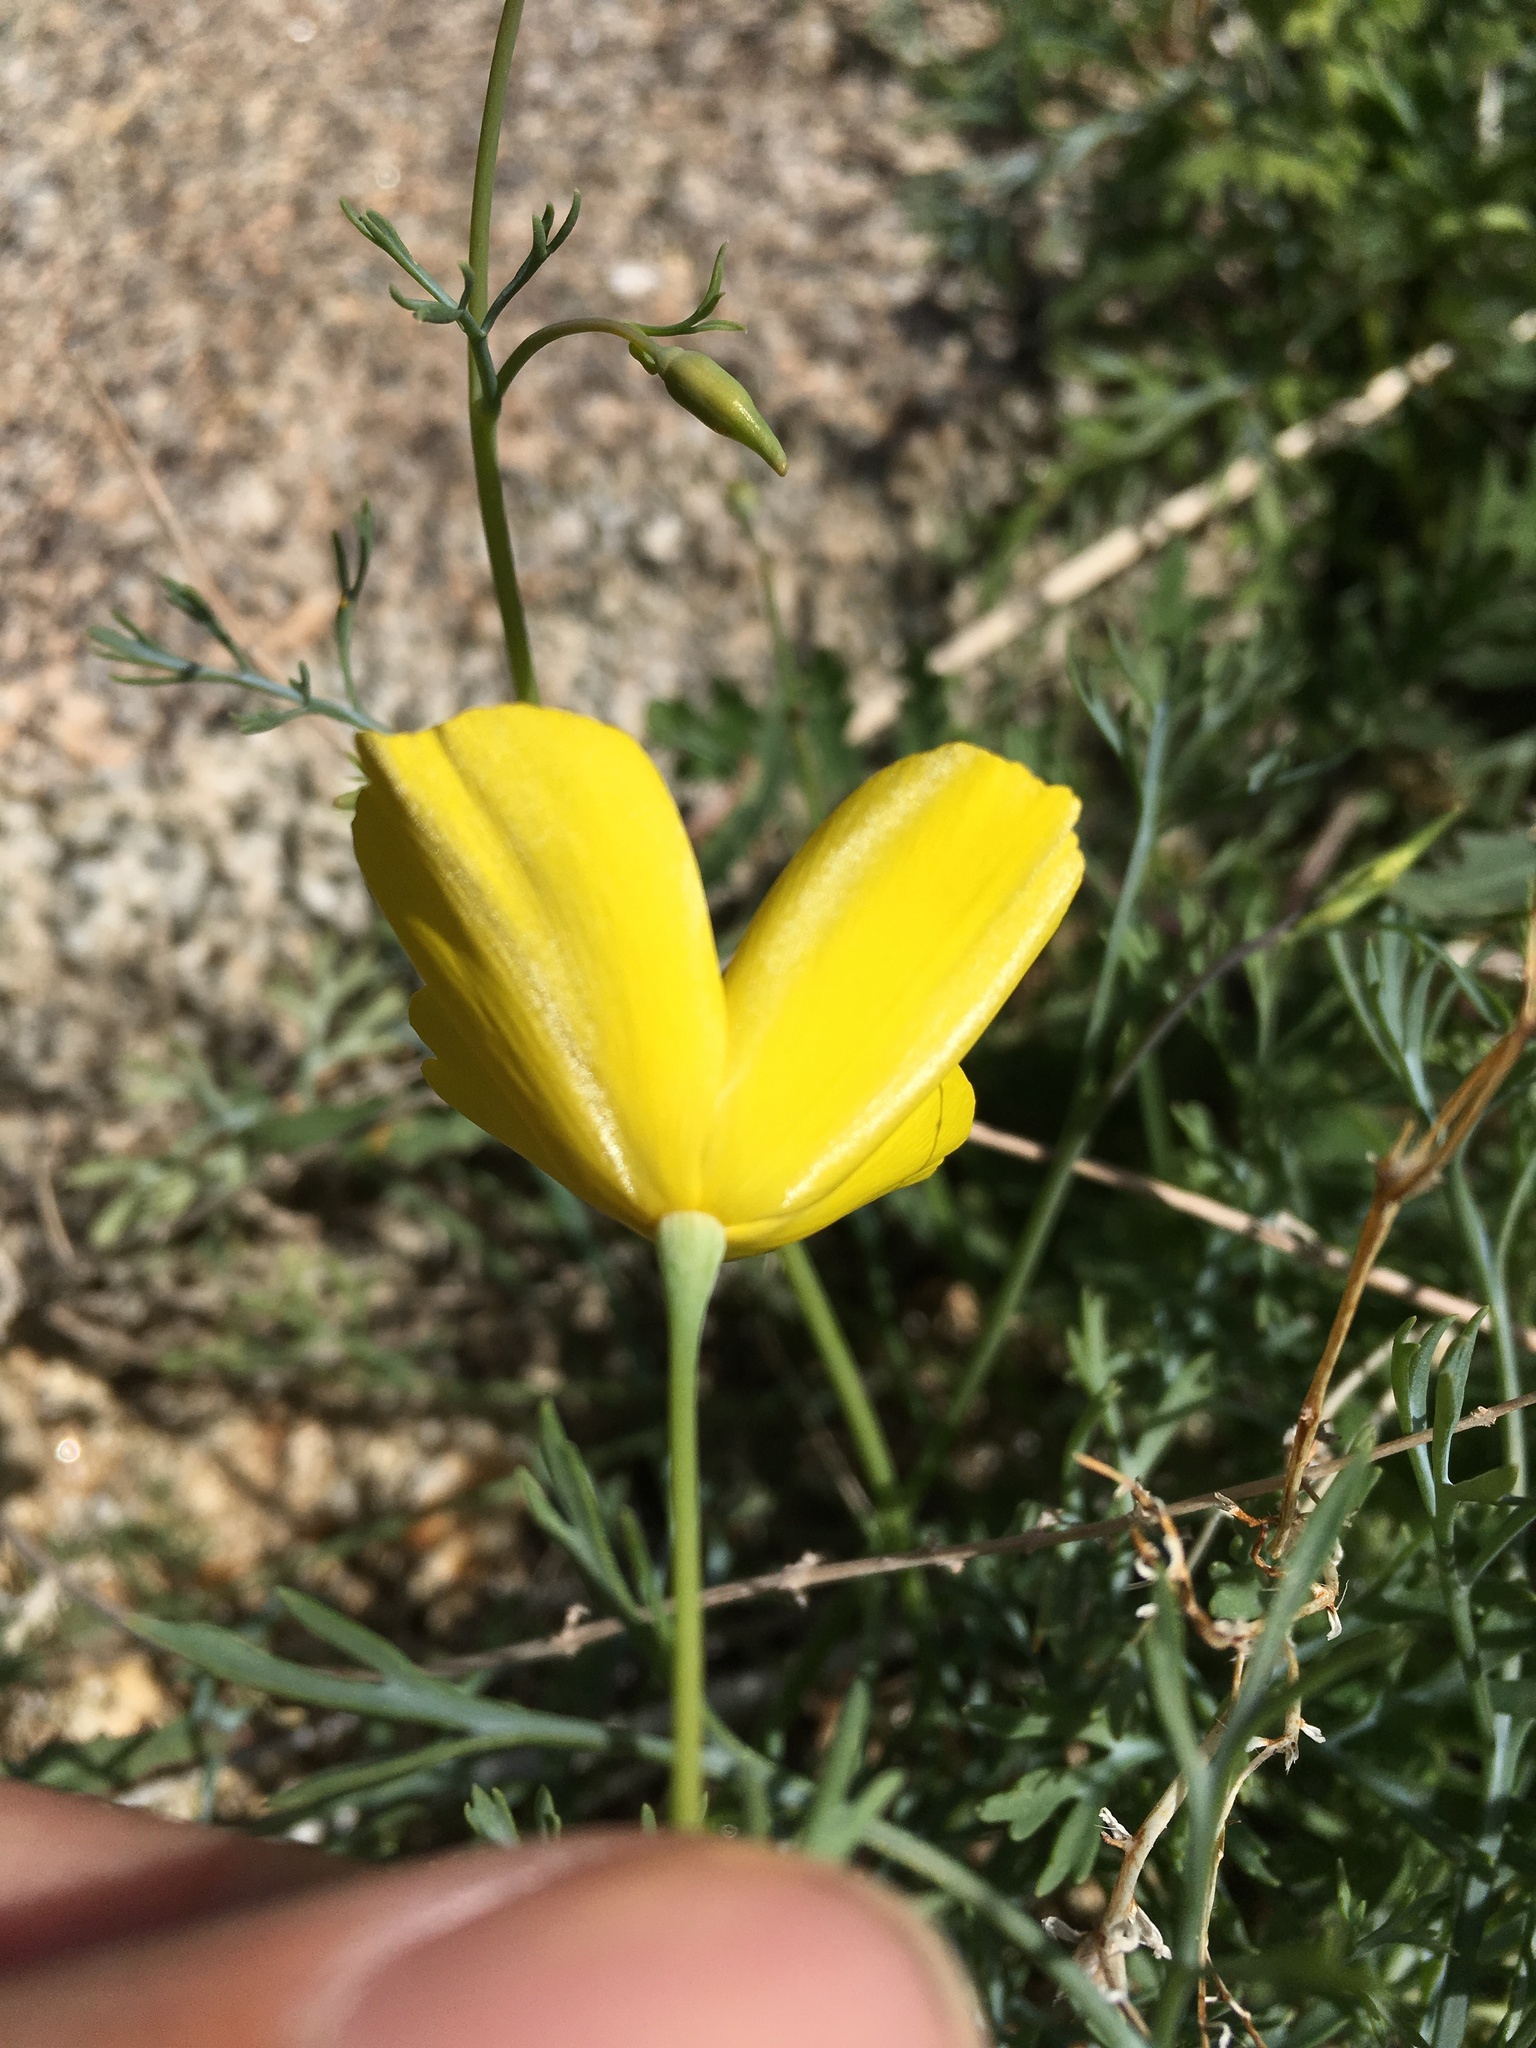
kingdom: Plantae
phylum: Tracheophyta
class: Magnoliopsida
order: Ranunculales
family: Papaveraceae
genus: Eschscholzia
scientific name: Eschscholzia parishii
